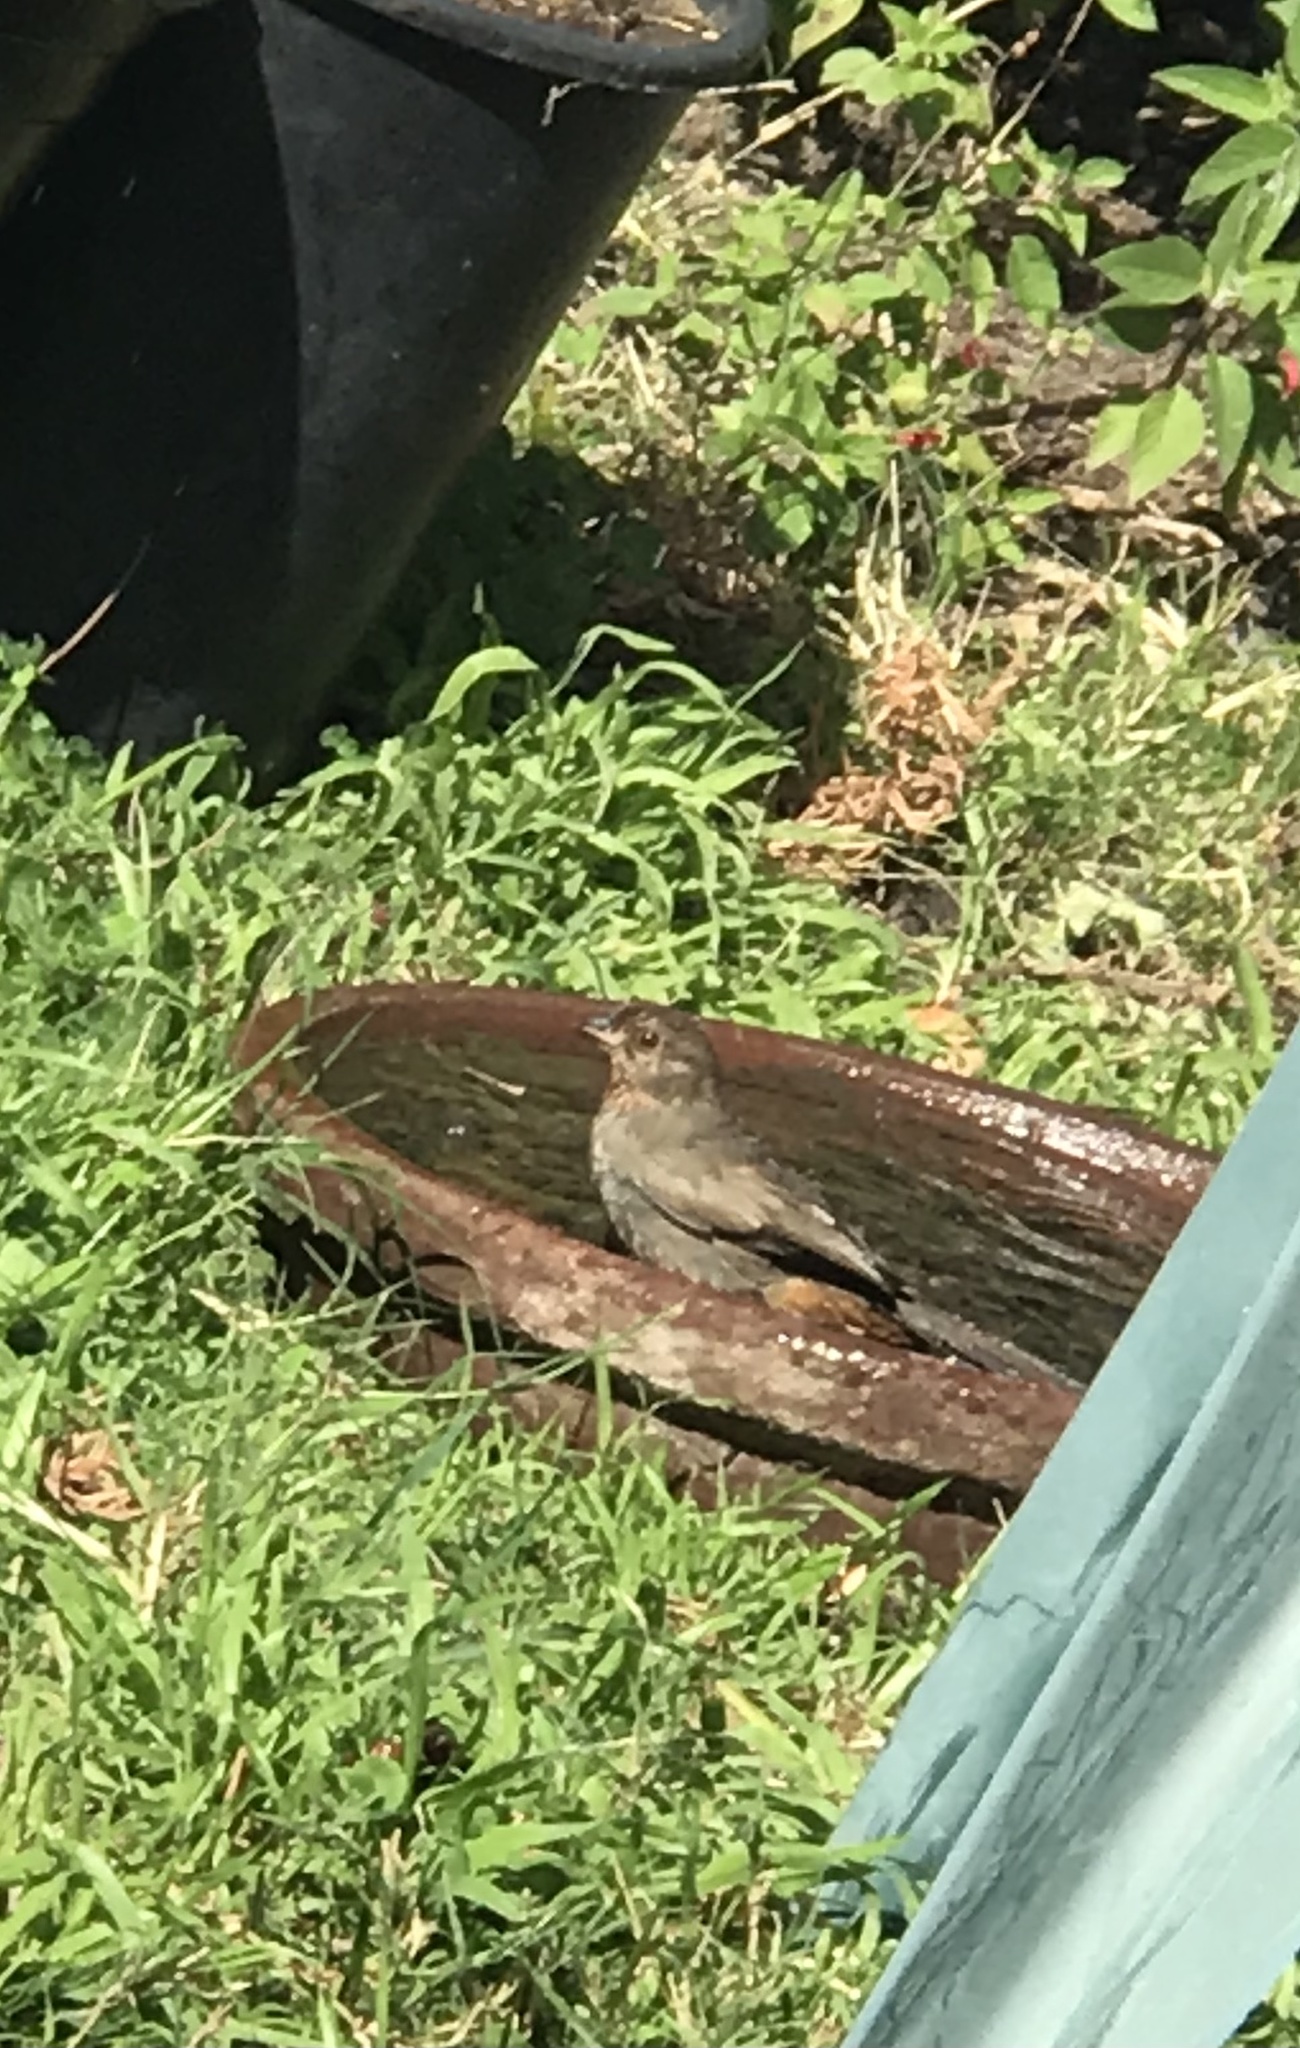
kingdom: Animalia
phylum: Chordata
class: Aves
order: Passeriformes
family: Passerellidae
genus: Melozone
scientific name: Melozone crissalis
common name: California towhee
